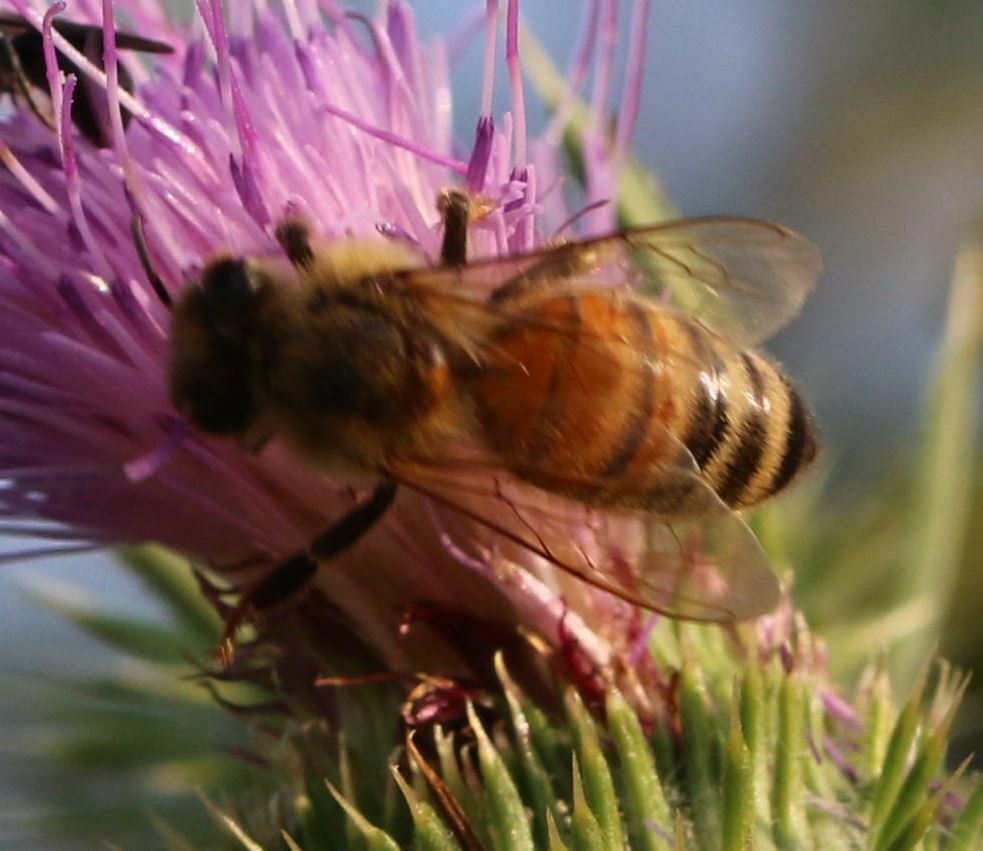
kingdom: Animalia
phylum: Arthropoda
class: Insecta
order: Hymenoptera
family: Apidae
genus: Apis
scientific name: Apis mellifera
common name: Honey bee
